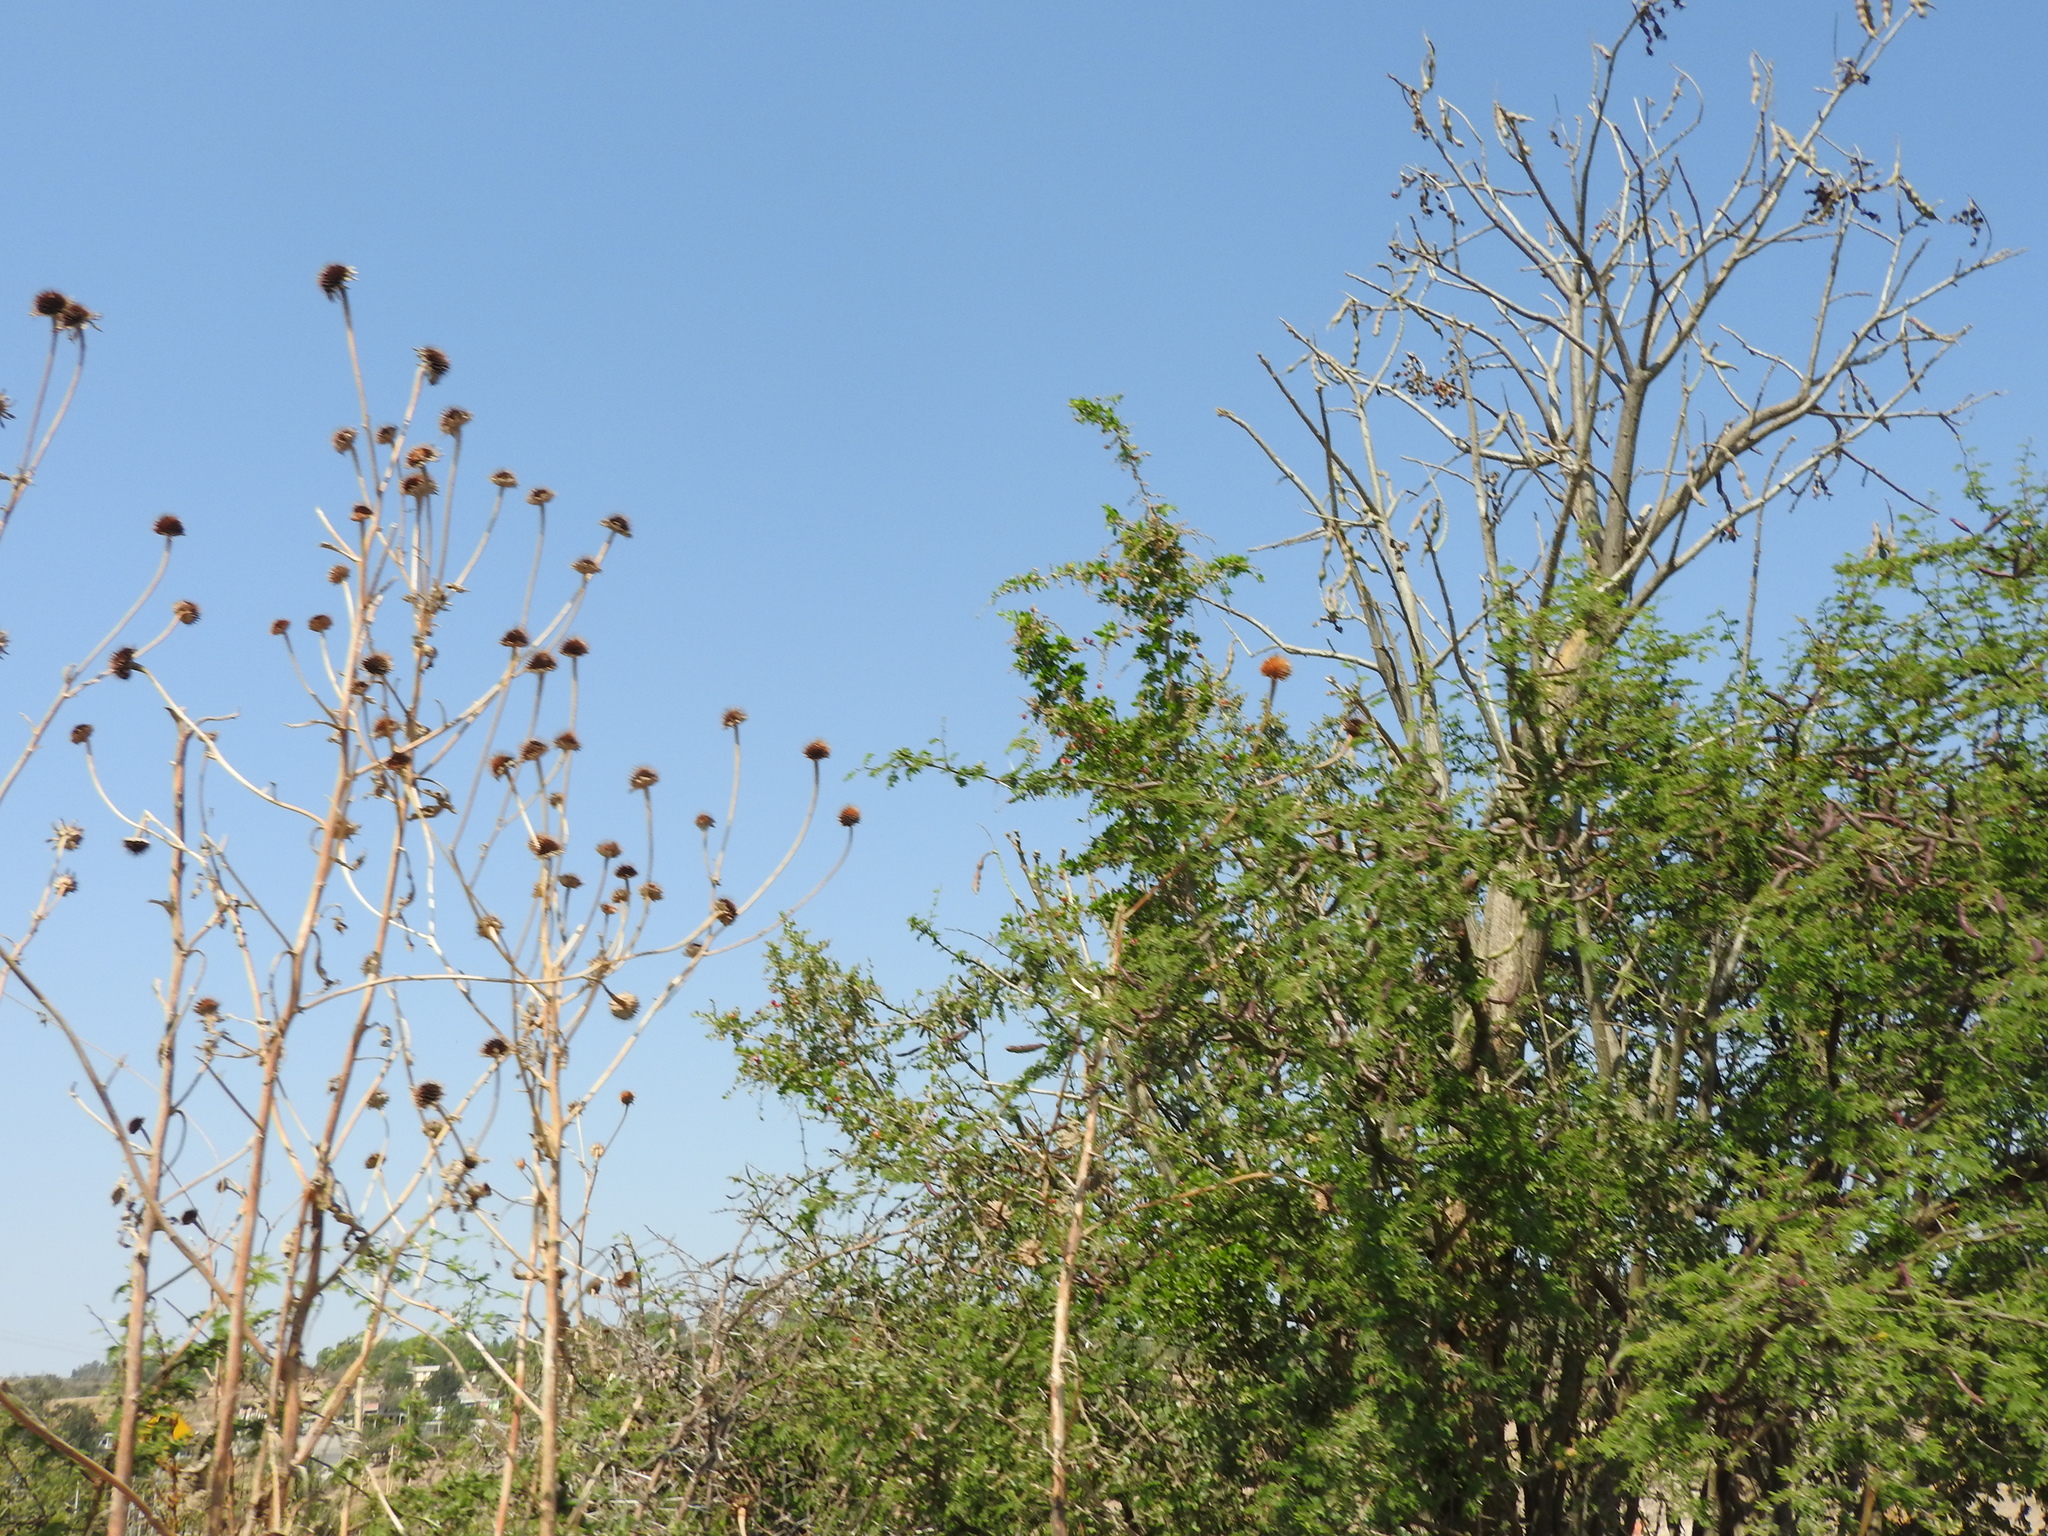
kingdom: Plantae
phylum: Tracheophyta
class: Magnoliopsida
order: Fabales
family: Fabaceae
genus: Vachellia
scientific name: Vachellia farnesiana
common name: Sweet acacia
